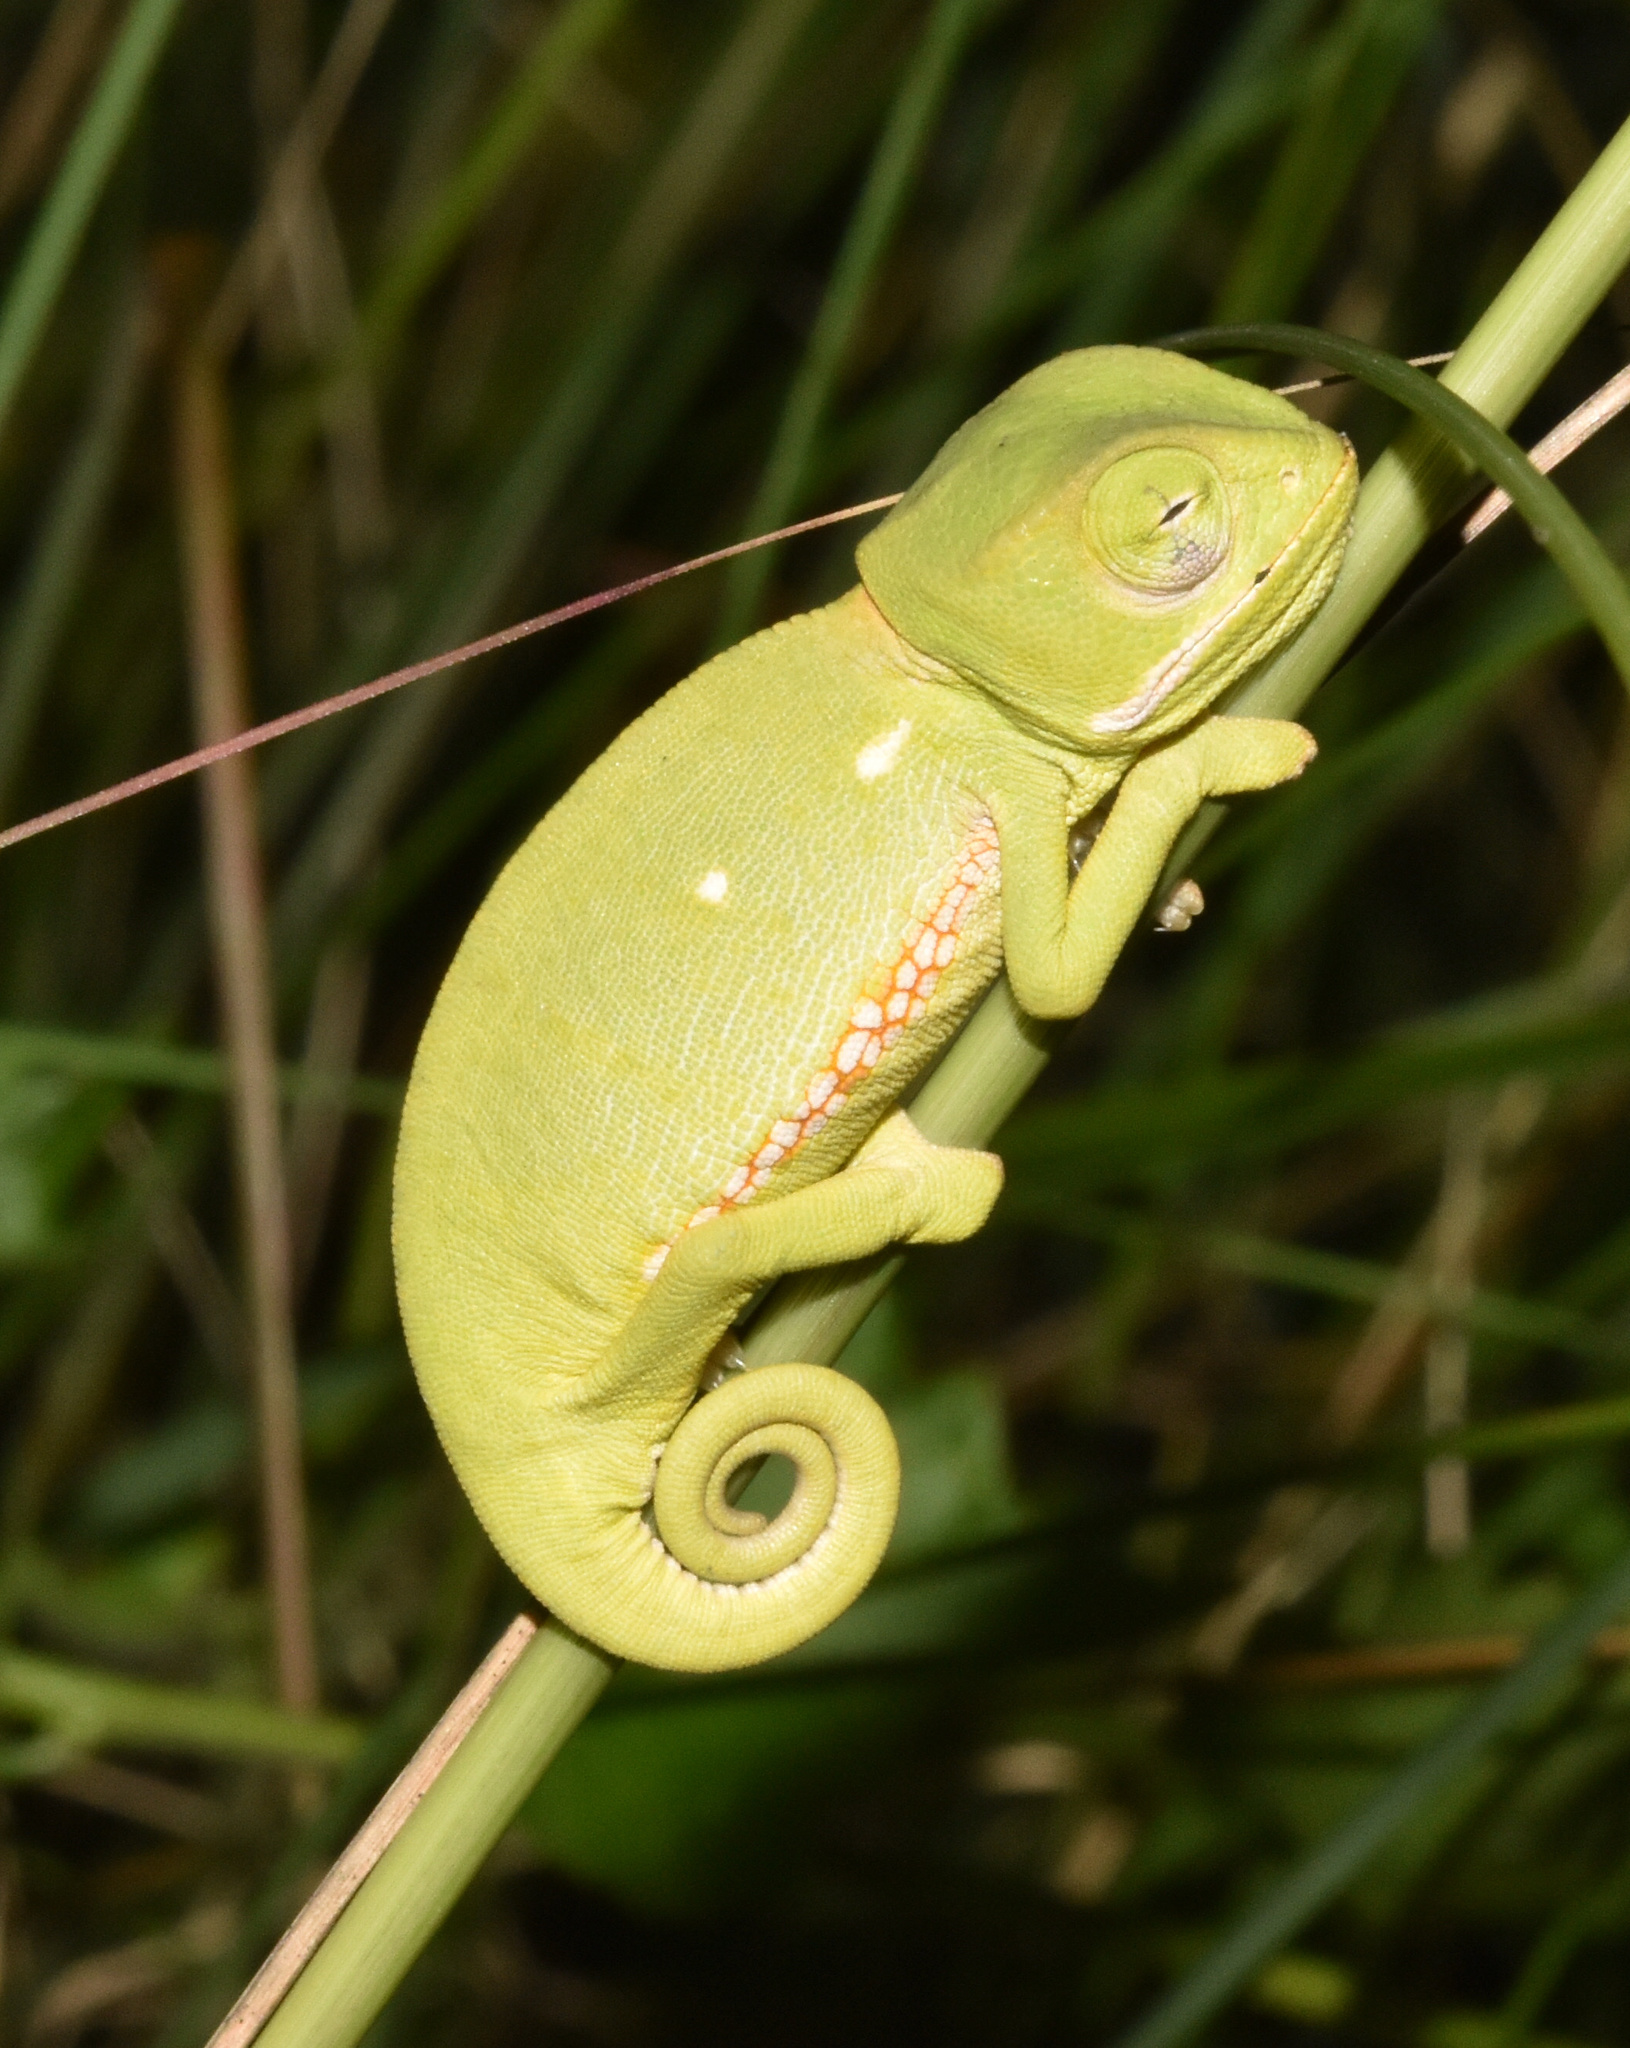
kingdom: Animalia
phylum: Chordata
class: Squamata
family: Chamaeleonidae
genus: Chamaeleo
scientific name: Chamaeleo dilepis
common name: Flapneck chameleon
